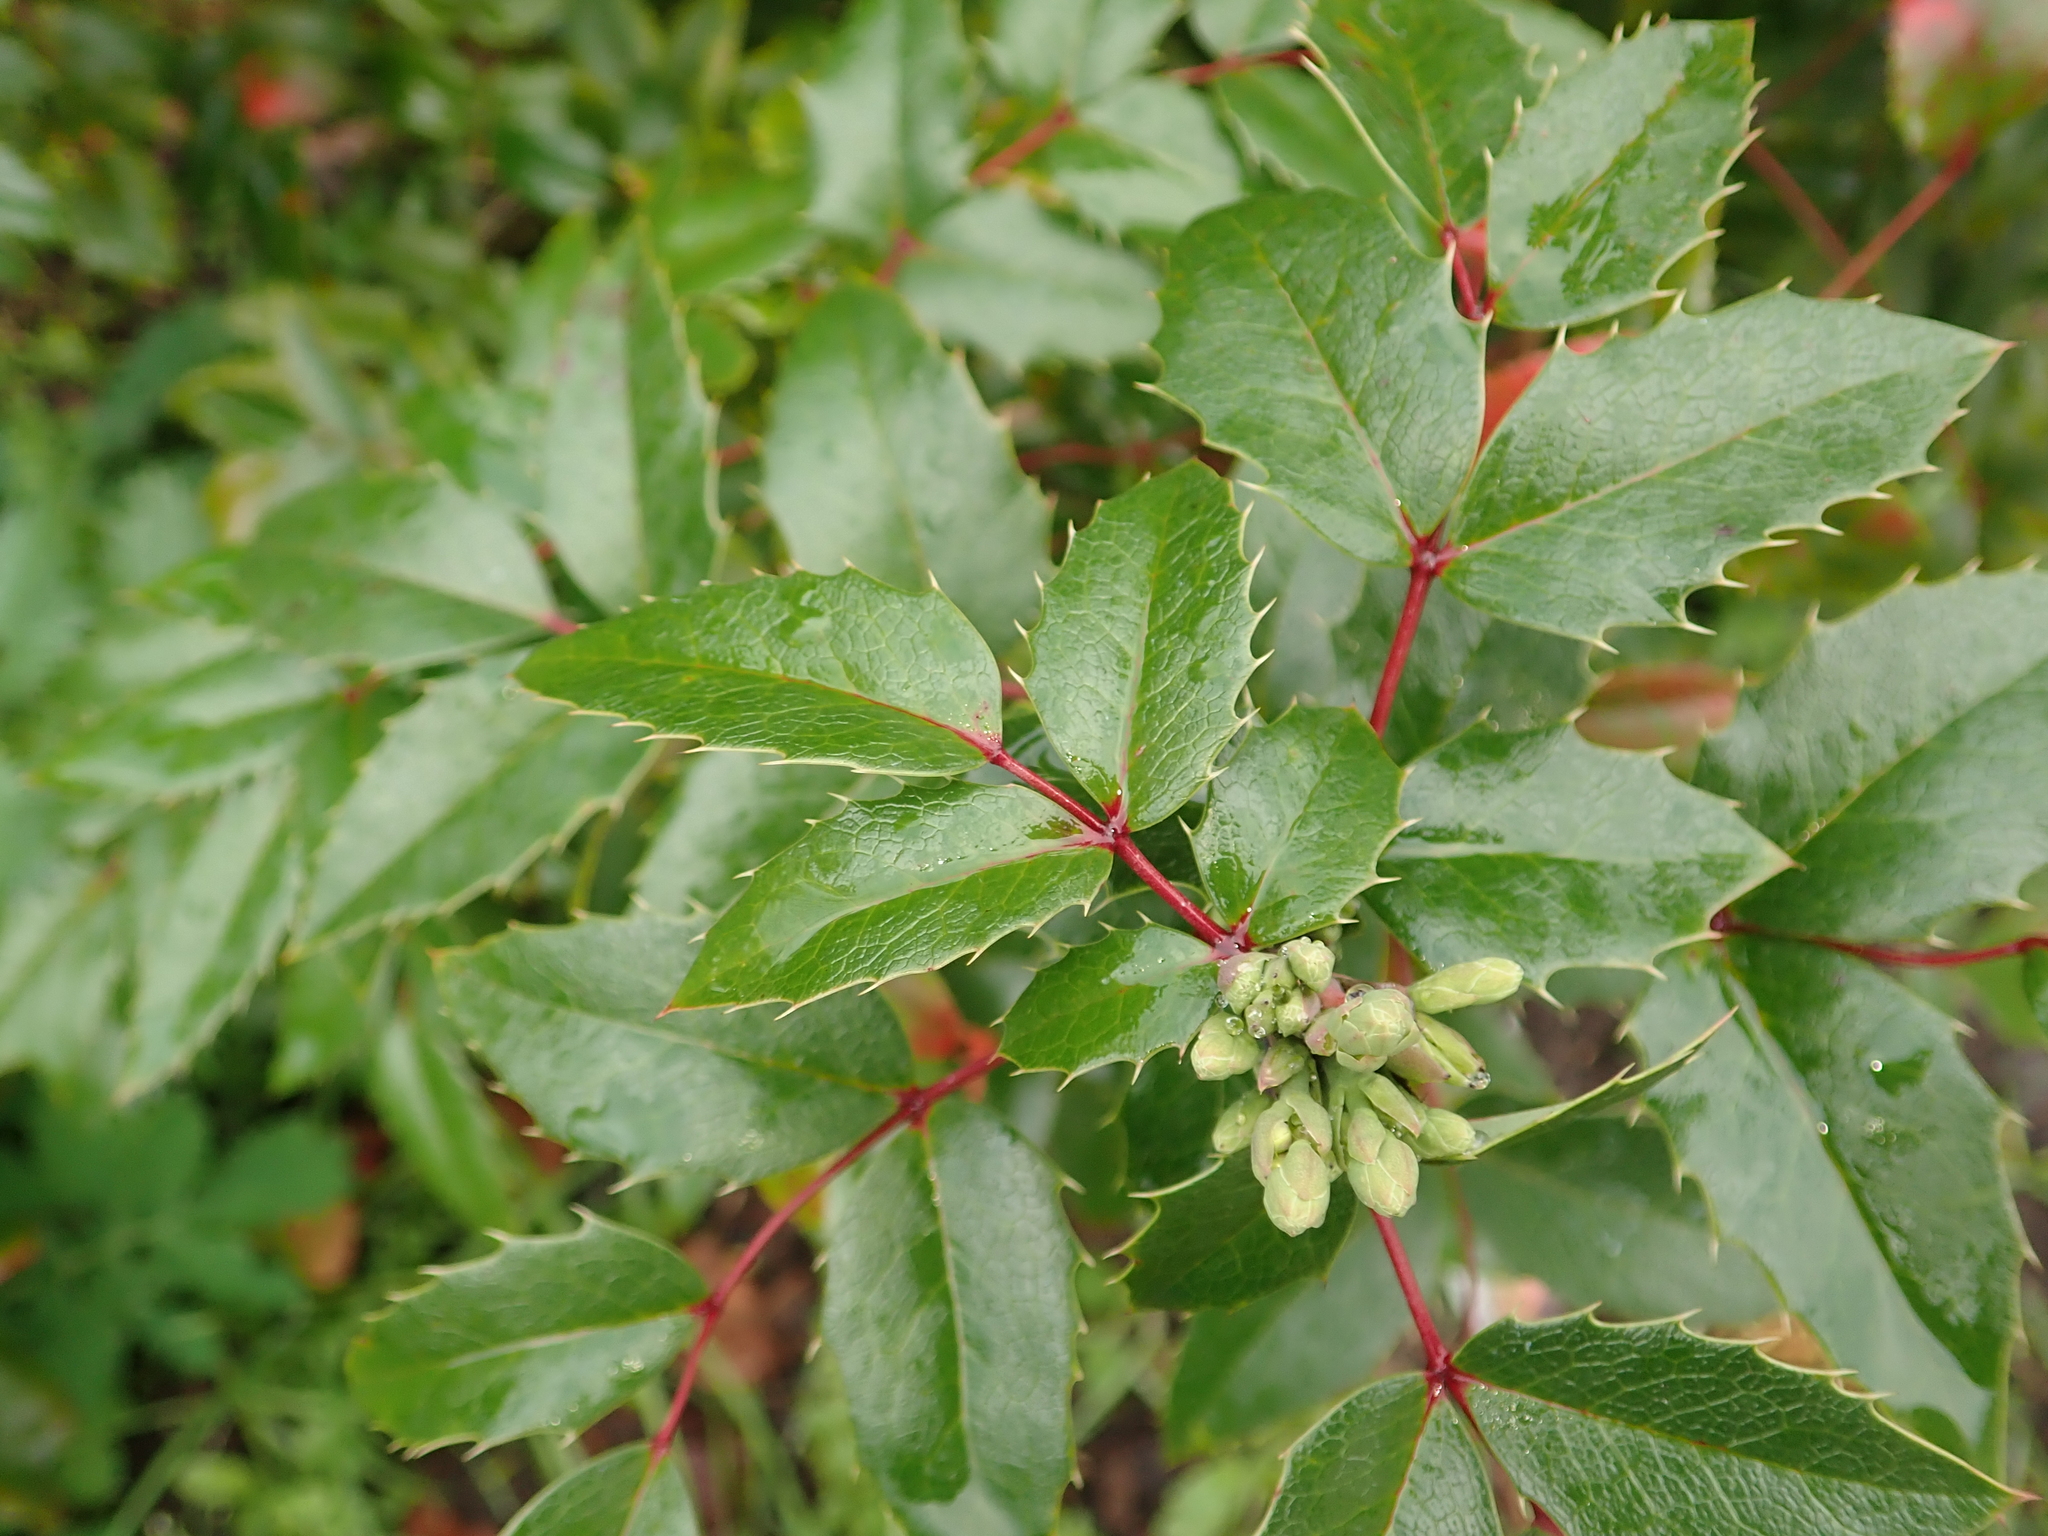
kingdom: Plantae
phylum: Tracheophyta
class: Magnoliopsida
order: Ranunculales
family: Berberidaceae
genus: Mahonia
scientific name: Mahonia aquifolium
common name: Oregon-grape
